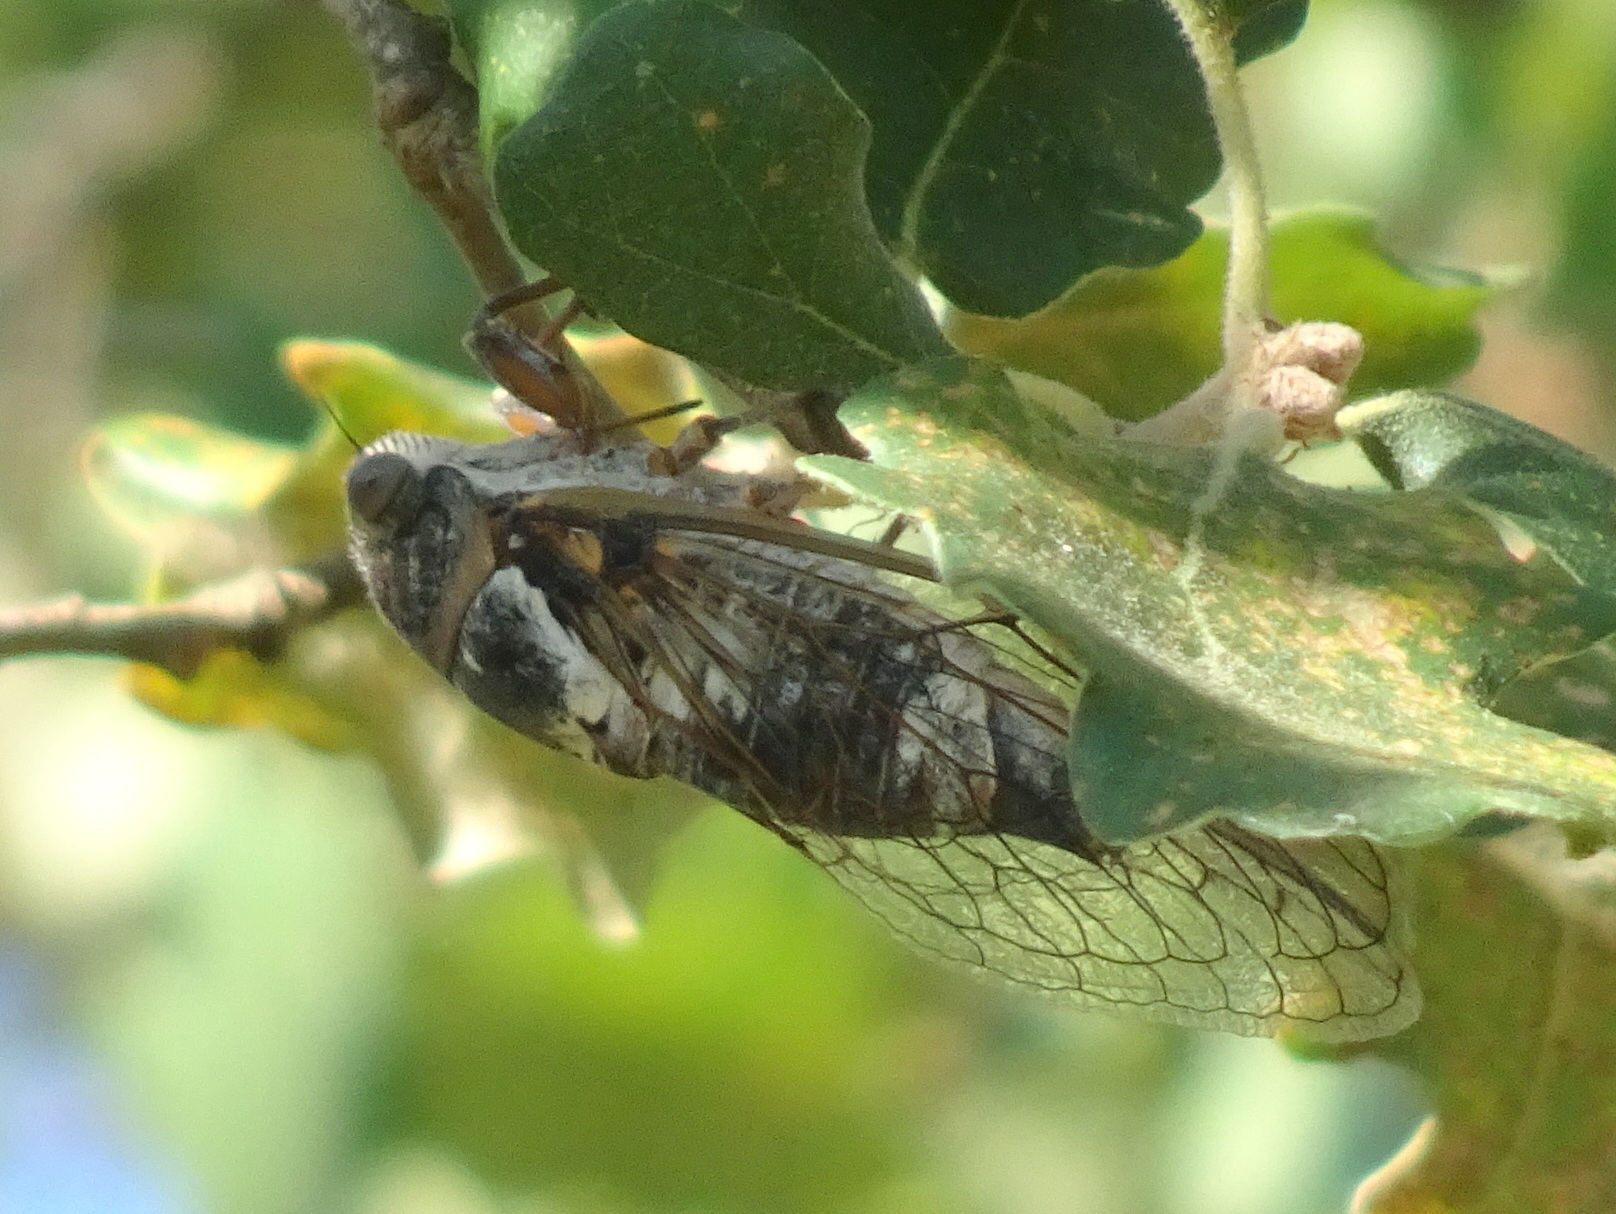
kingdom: Animalia
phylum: Arthropoda
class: Insecta
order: Hemiptera
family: Cicadidae
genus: Lyristes
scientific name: Lyristes plebejus
